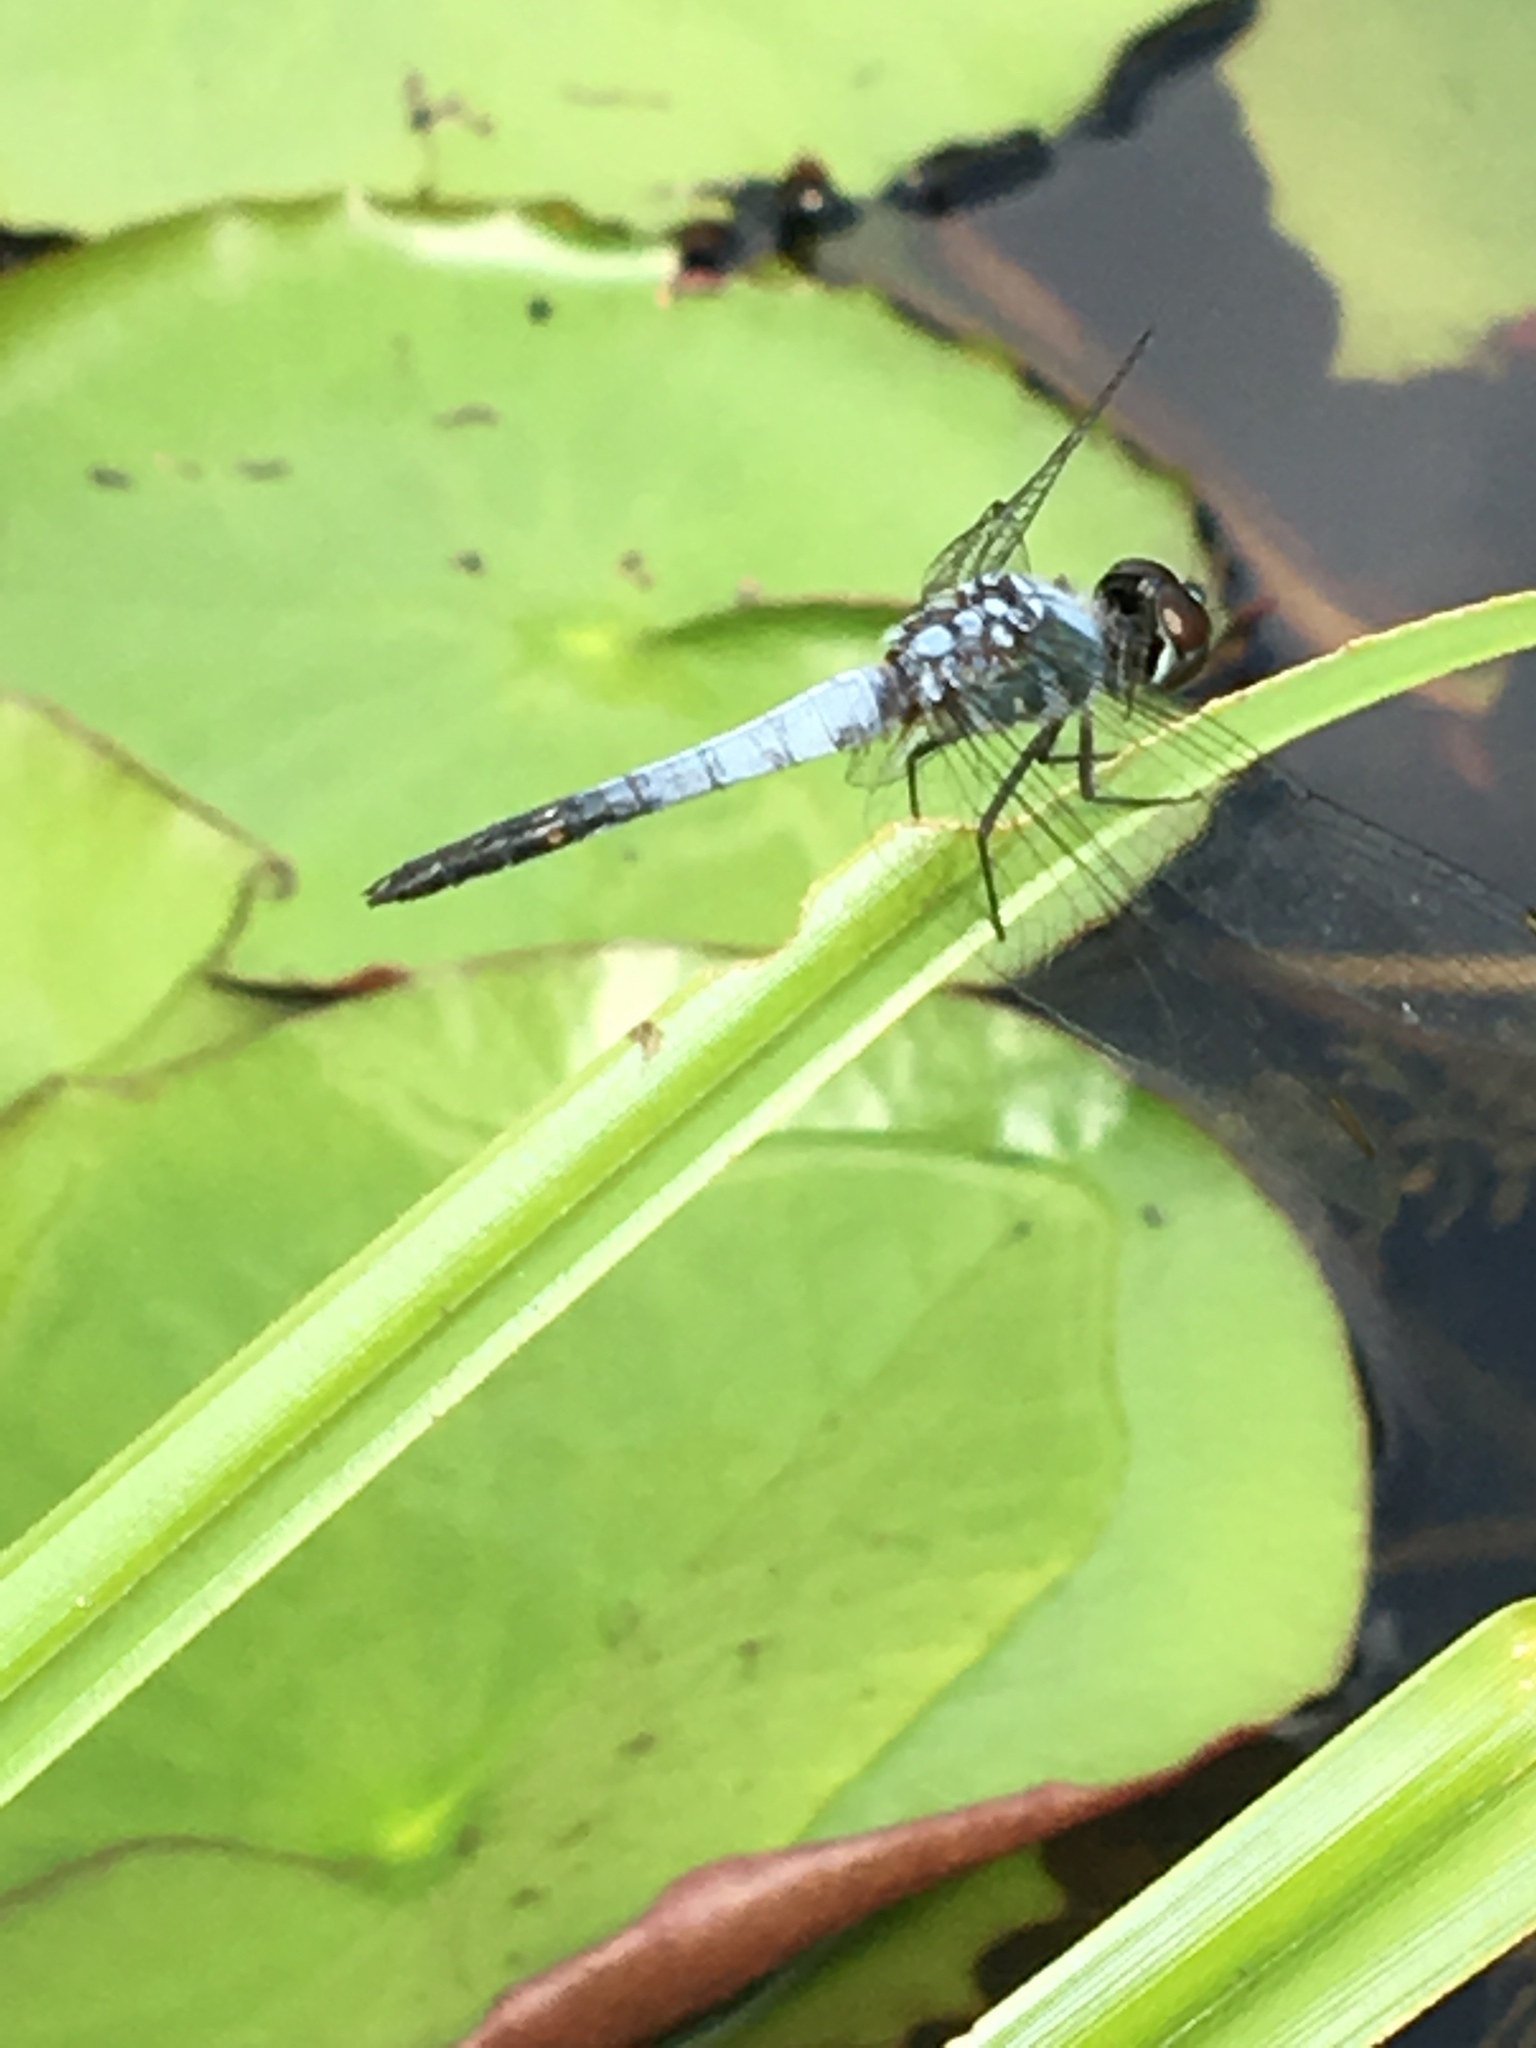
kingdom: Animalia
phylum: Arthropoda
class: Insecta
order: Odonata
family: Libellulidae
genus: Brachydiplax
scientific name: Brachydiplax sobrina
